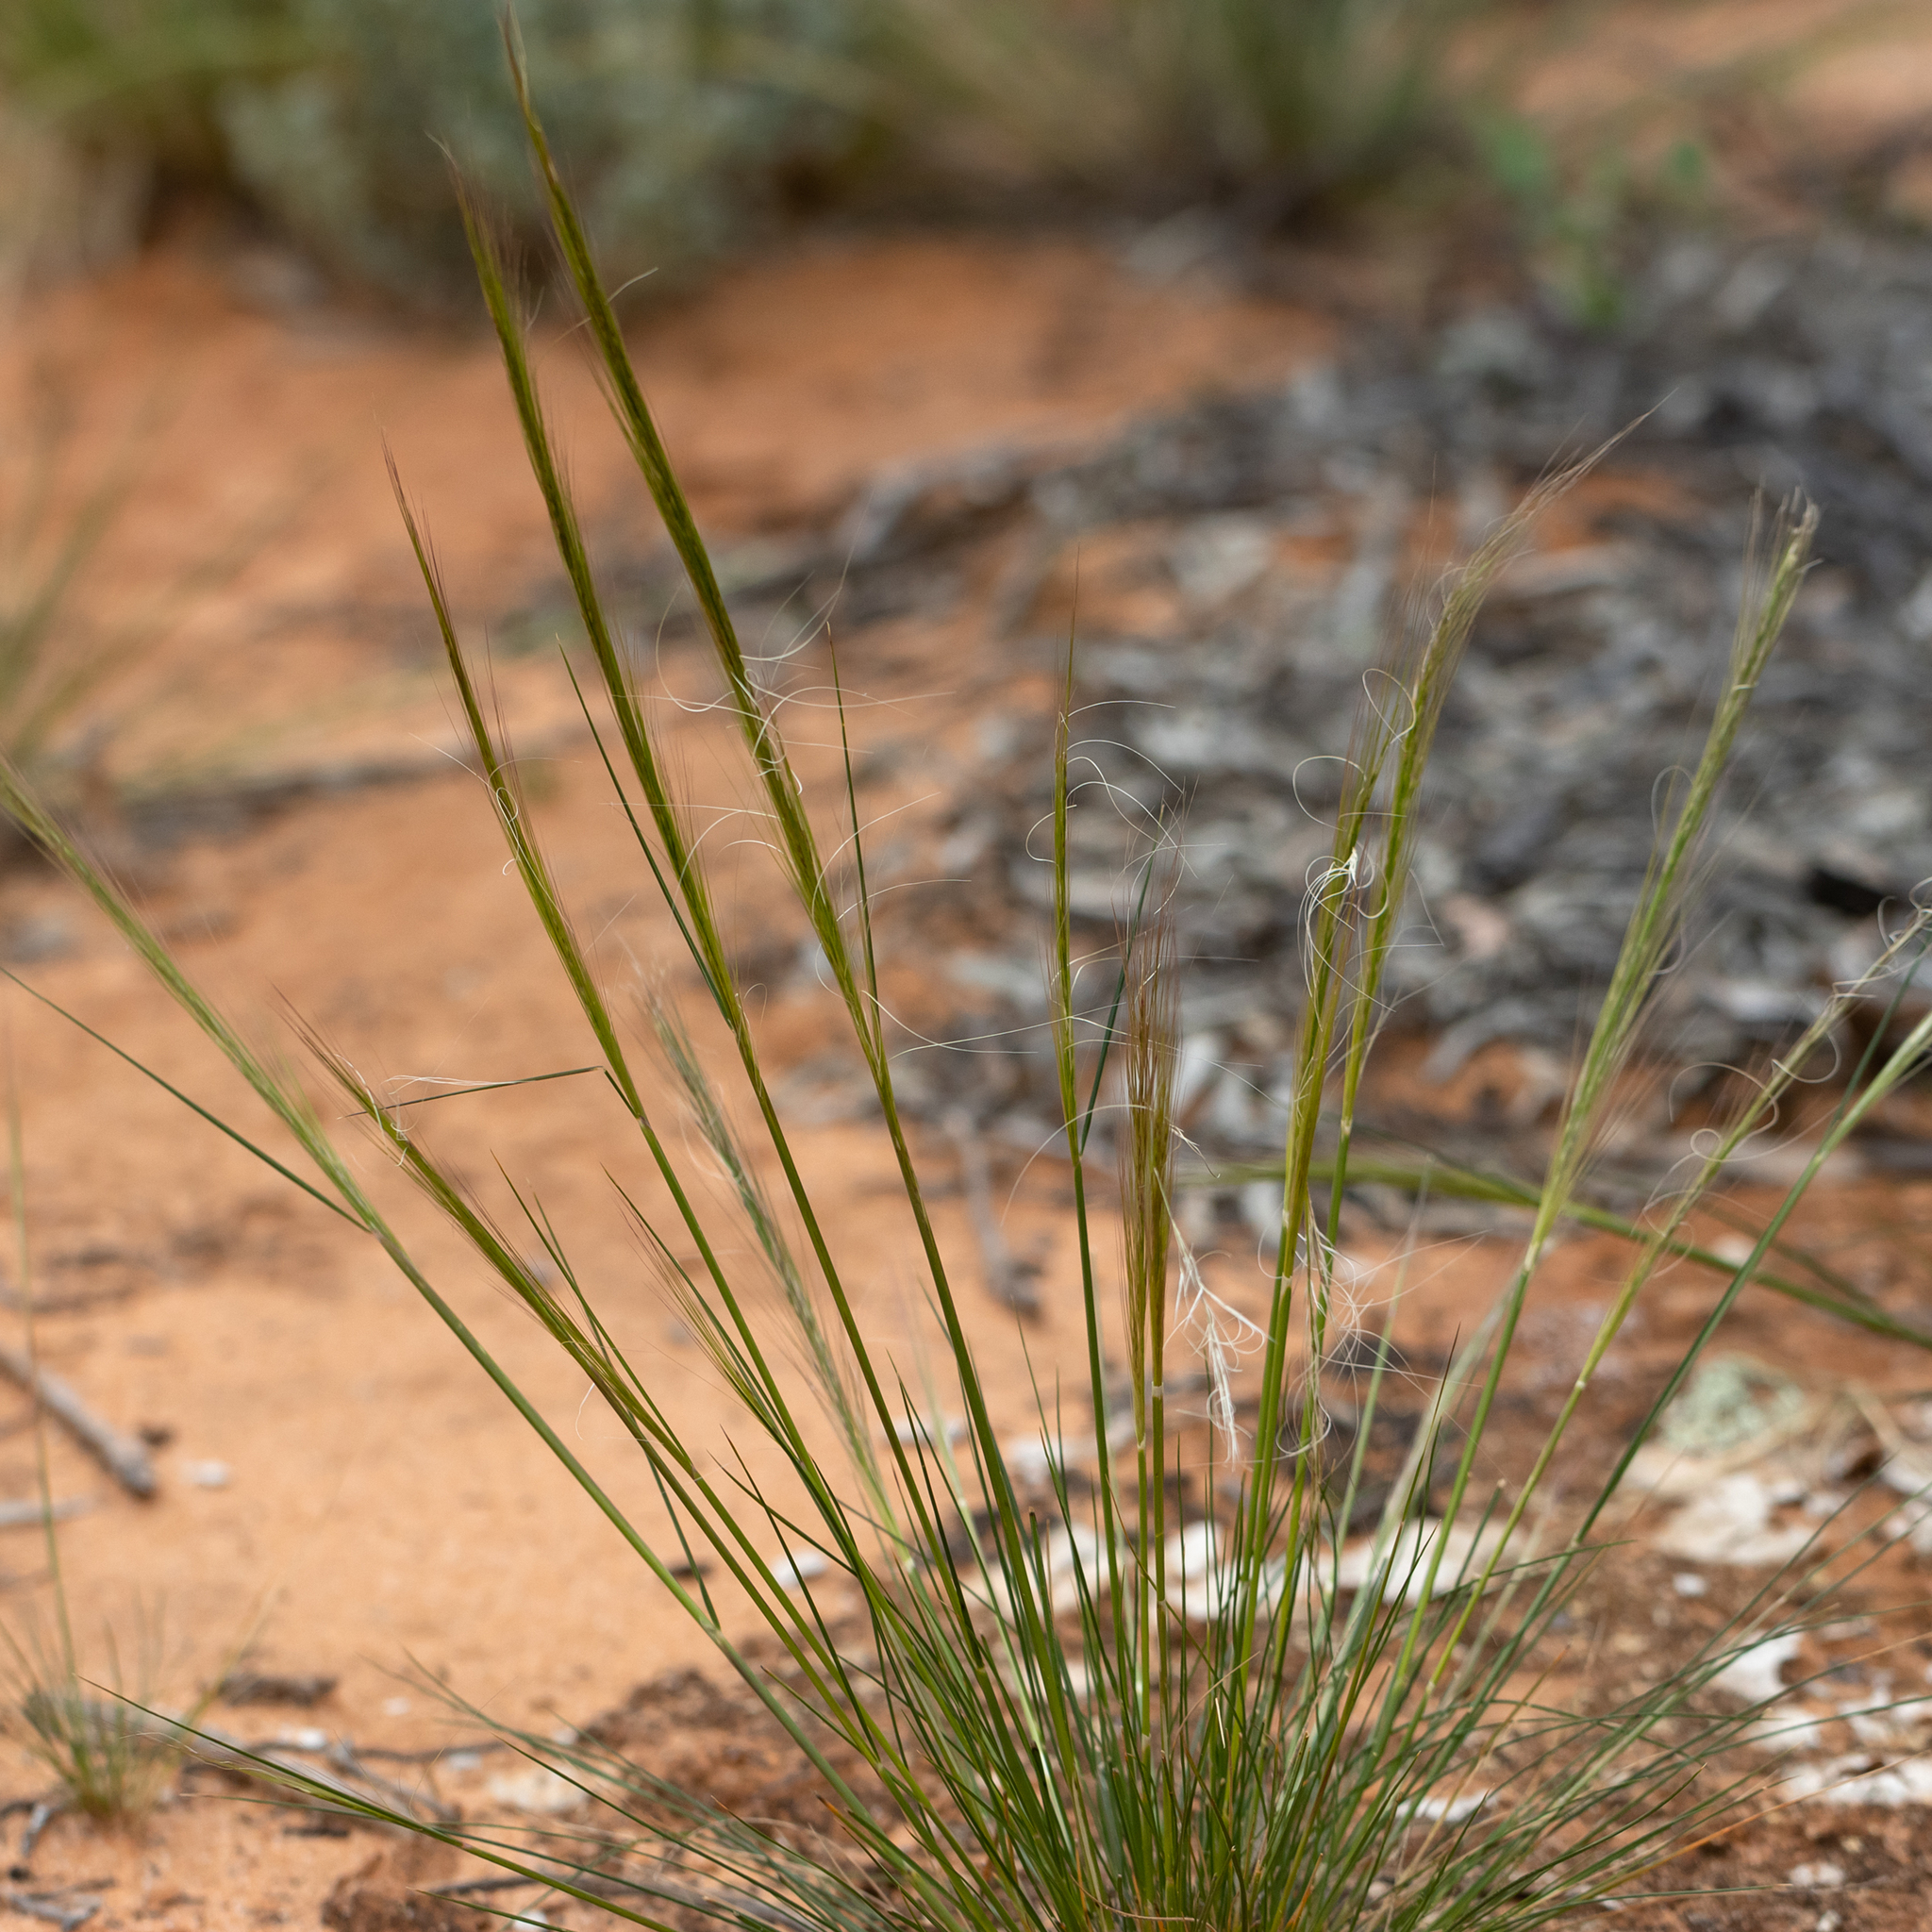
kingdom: Plantae
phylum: Tracheophyta
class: Liliopsida
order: Poales
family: Poaceae
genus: Austrostipa
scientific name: Austrostipa nitida
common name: Balcarra grass
